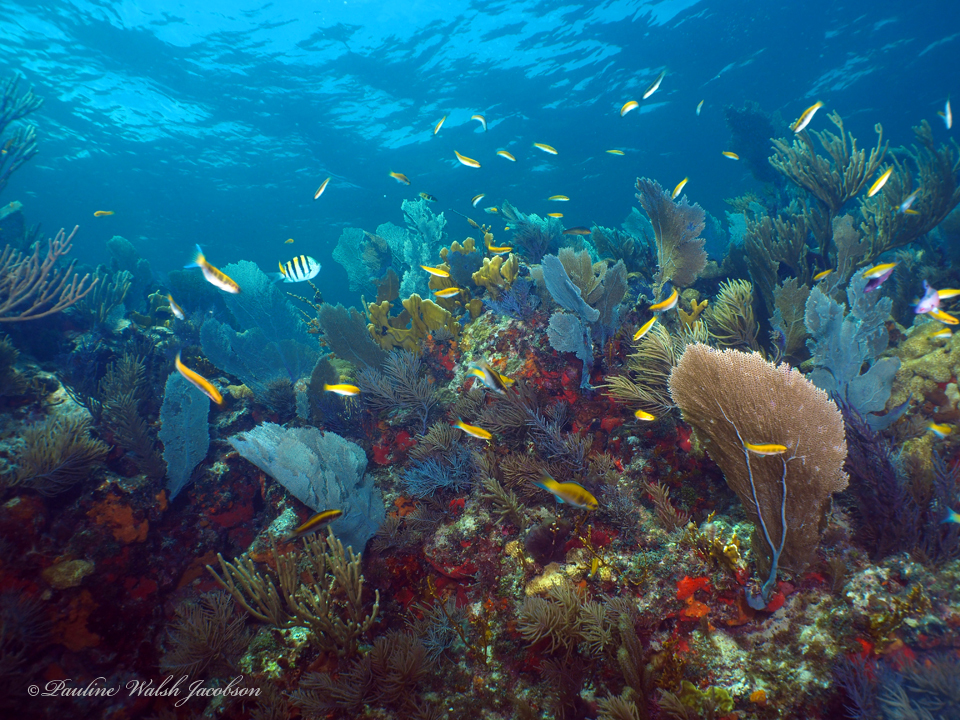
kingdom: Animalia
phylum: Chordata
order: Perciformes
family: Labridae
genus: Thalassoma
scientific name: Thalassoma bifasciatum
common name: Bluehead wrasse
